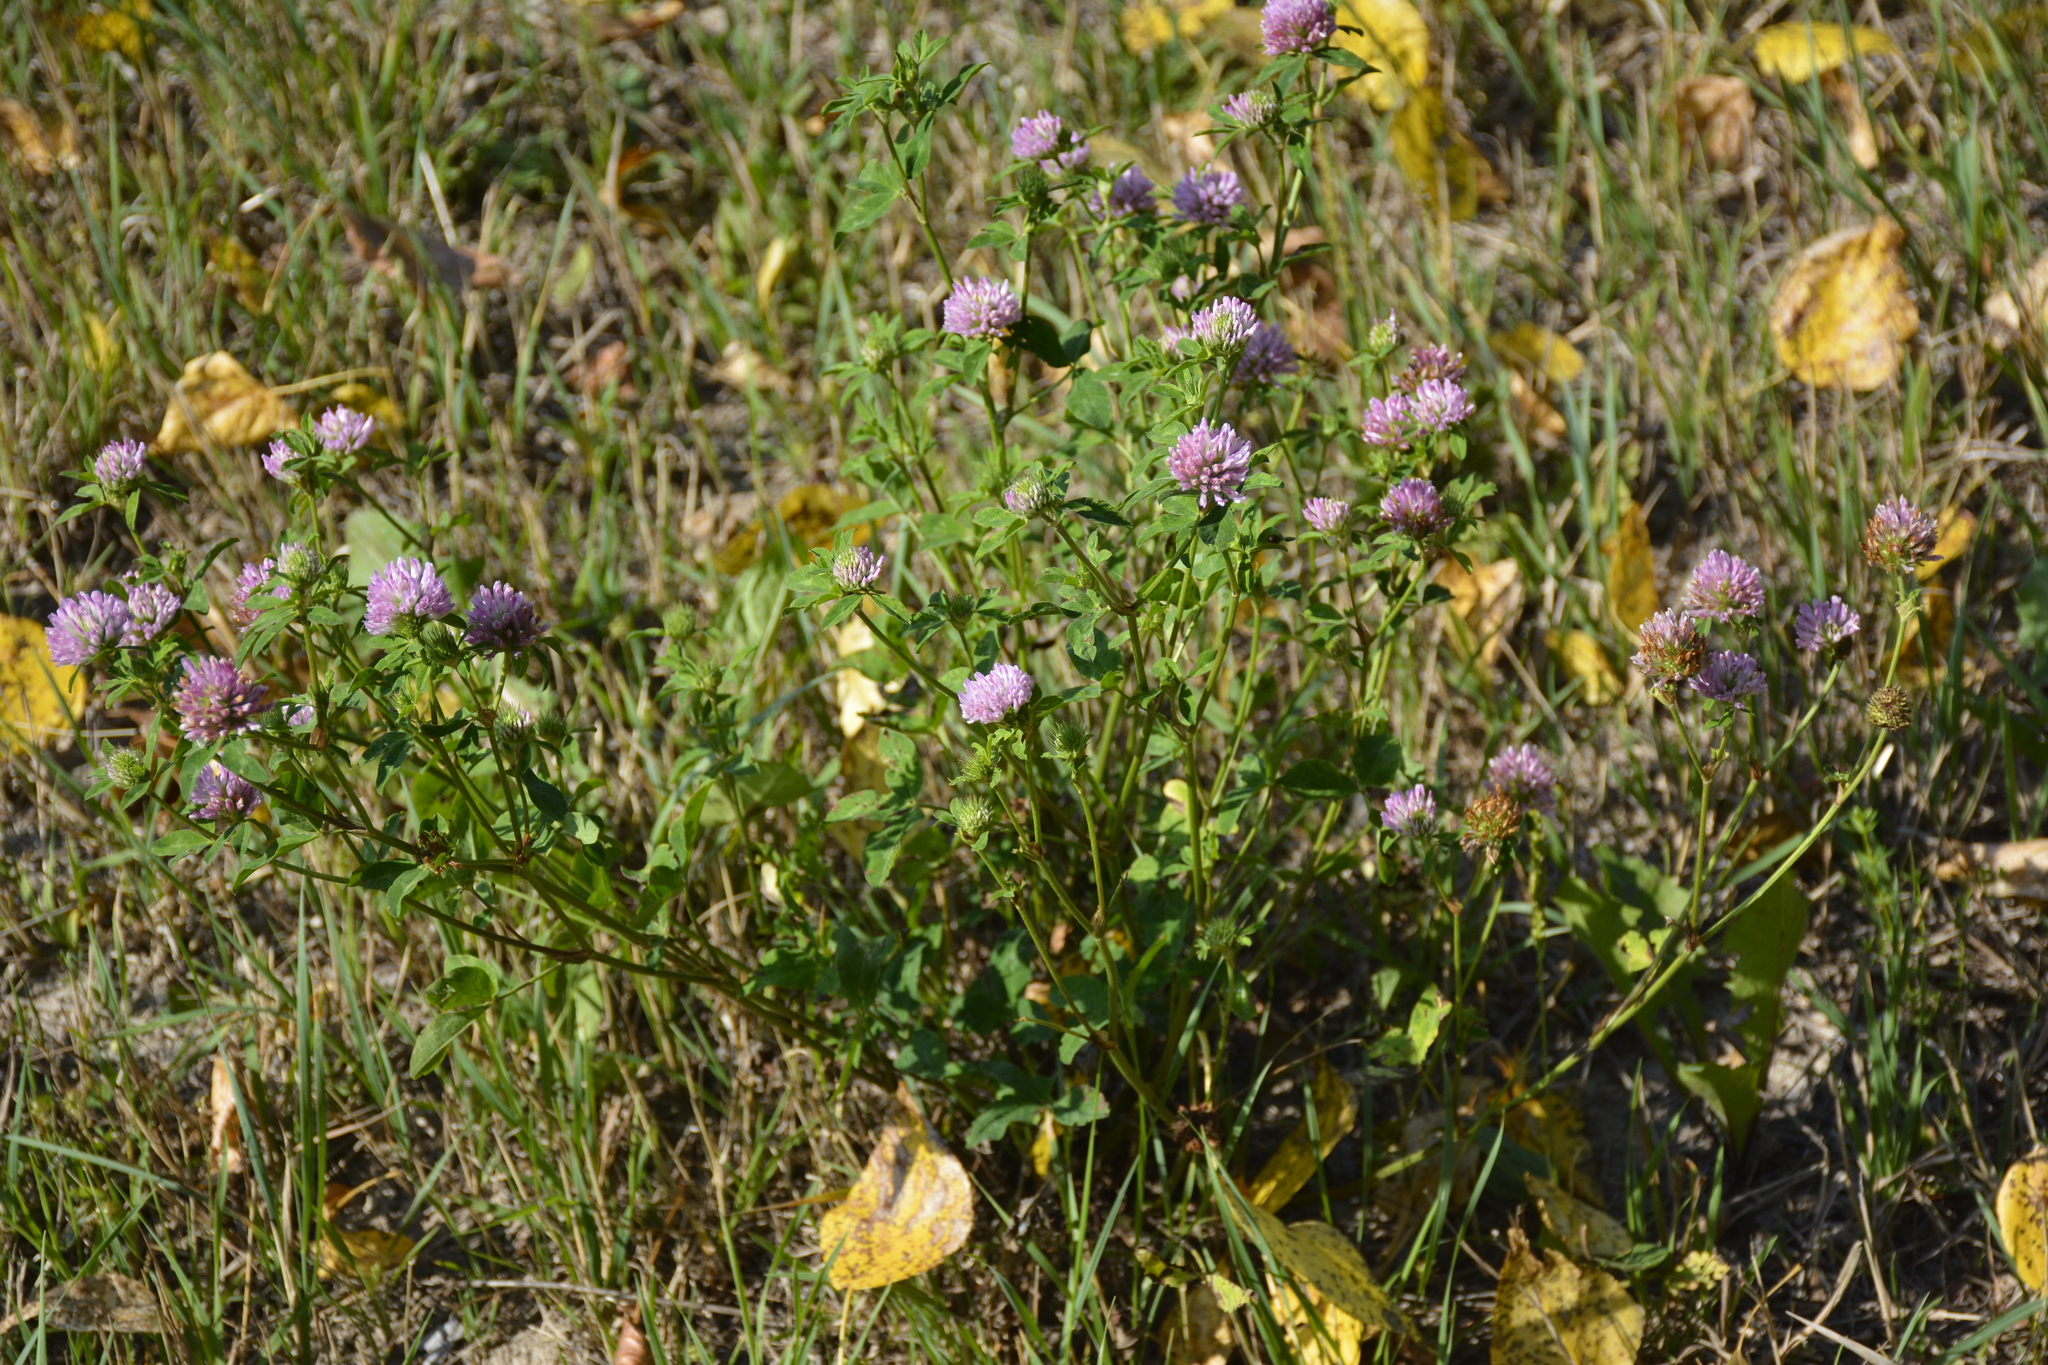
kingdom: Plantae
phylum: Tracheophyta
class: Magnoliopsida
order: Fabales
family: Fabaceae
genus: Trifolium
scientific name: Trifolium pratense
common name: Red clover
